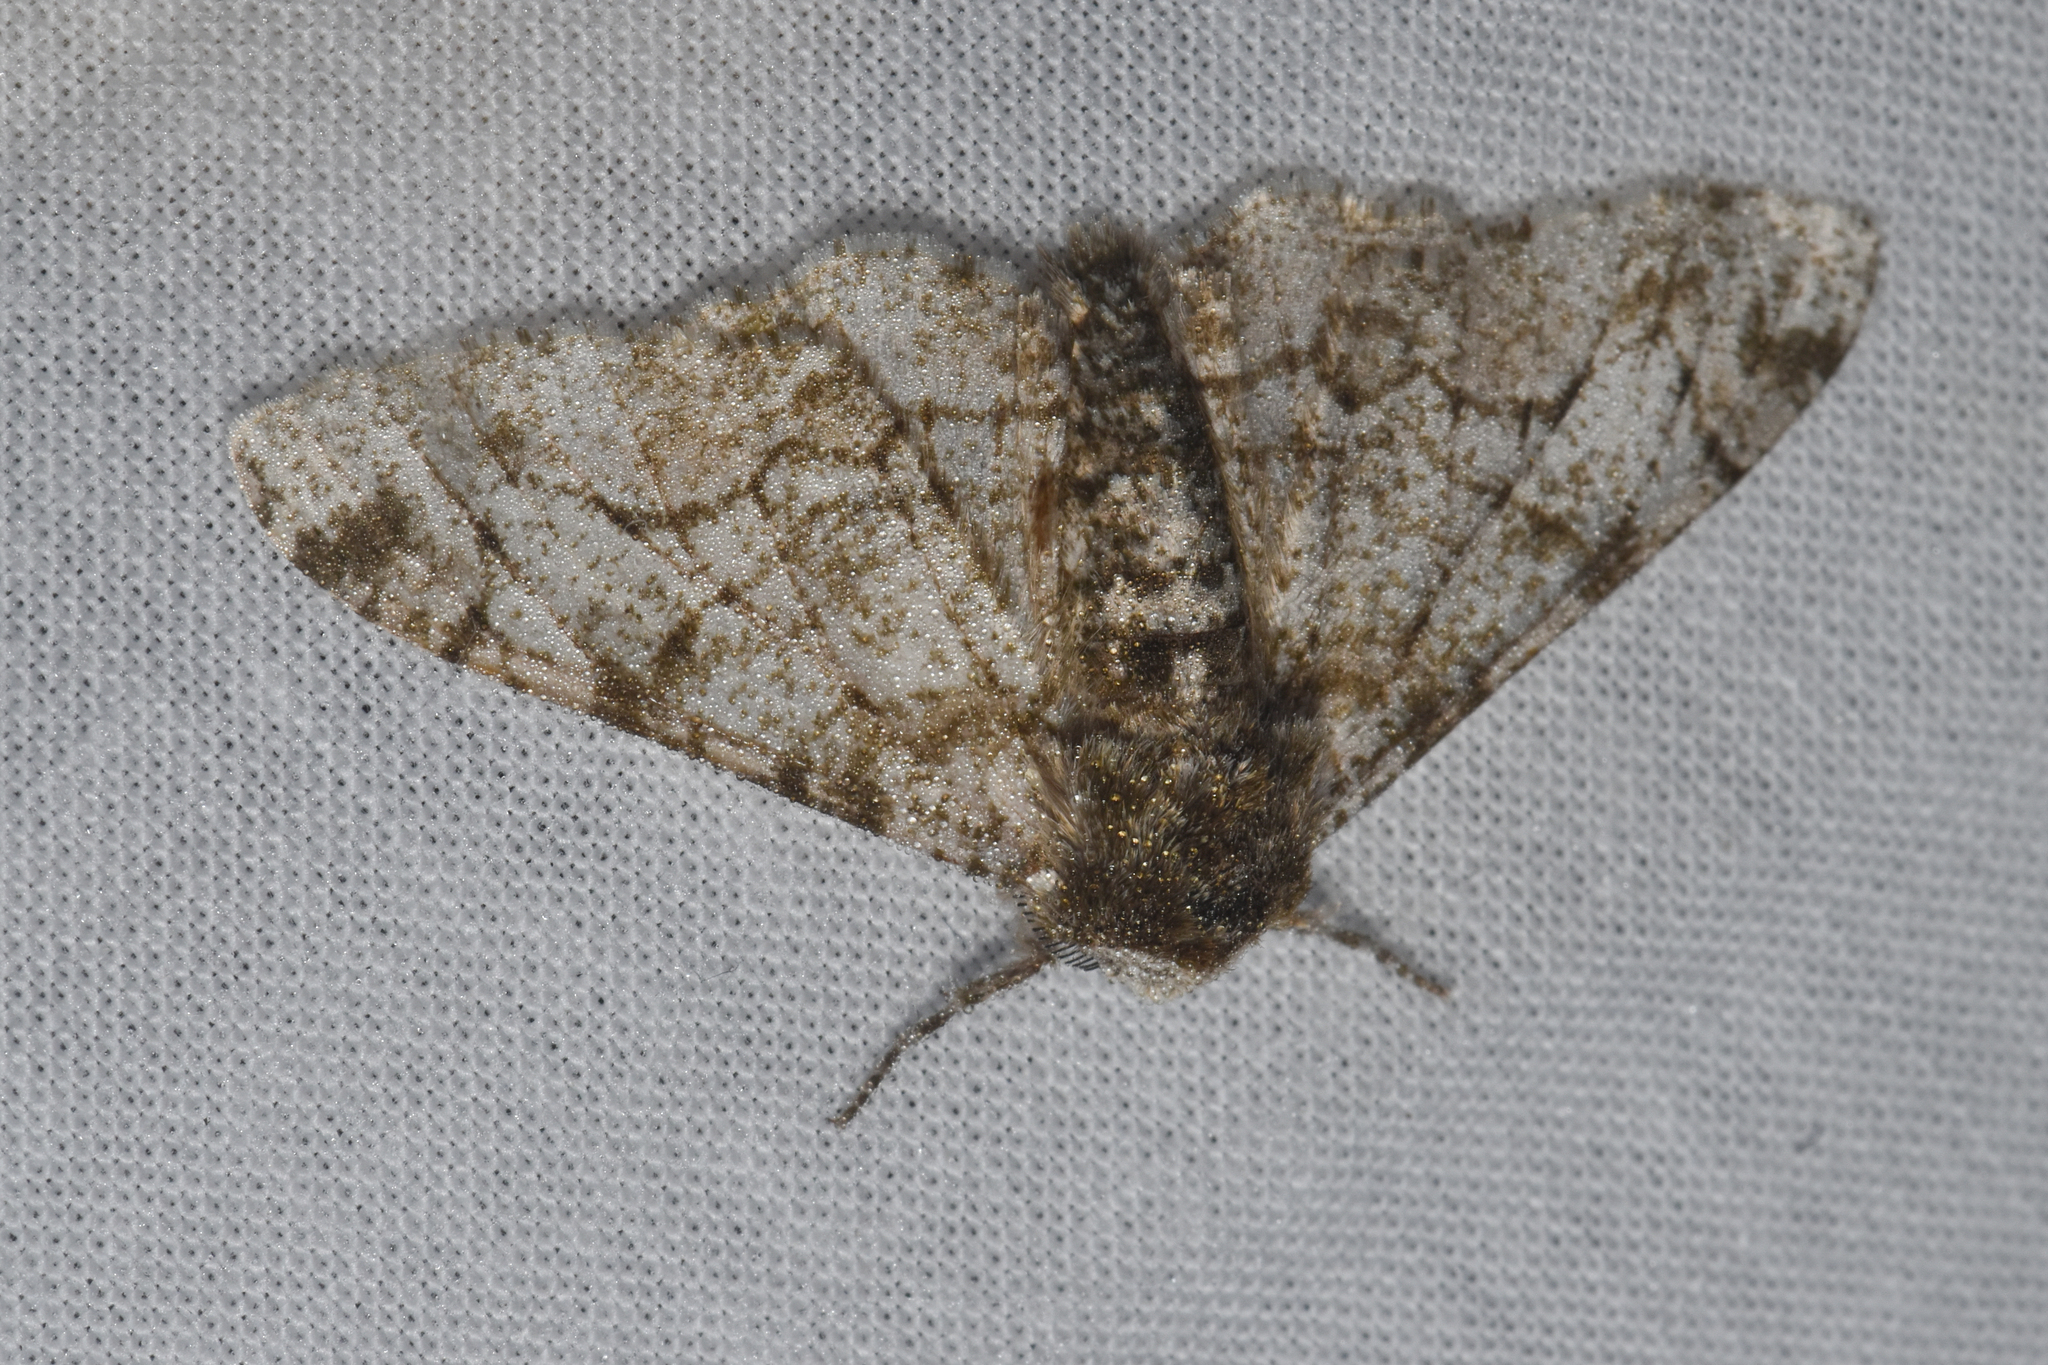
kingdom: Animalia
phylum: Arthropoda
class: Insecta
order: Lepidoptera
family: Geometridae
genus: Biston
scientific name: Biston betularia
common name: Peppered moth
